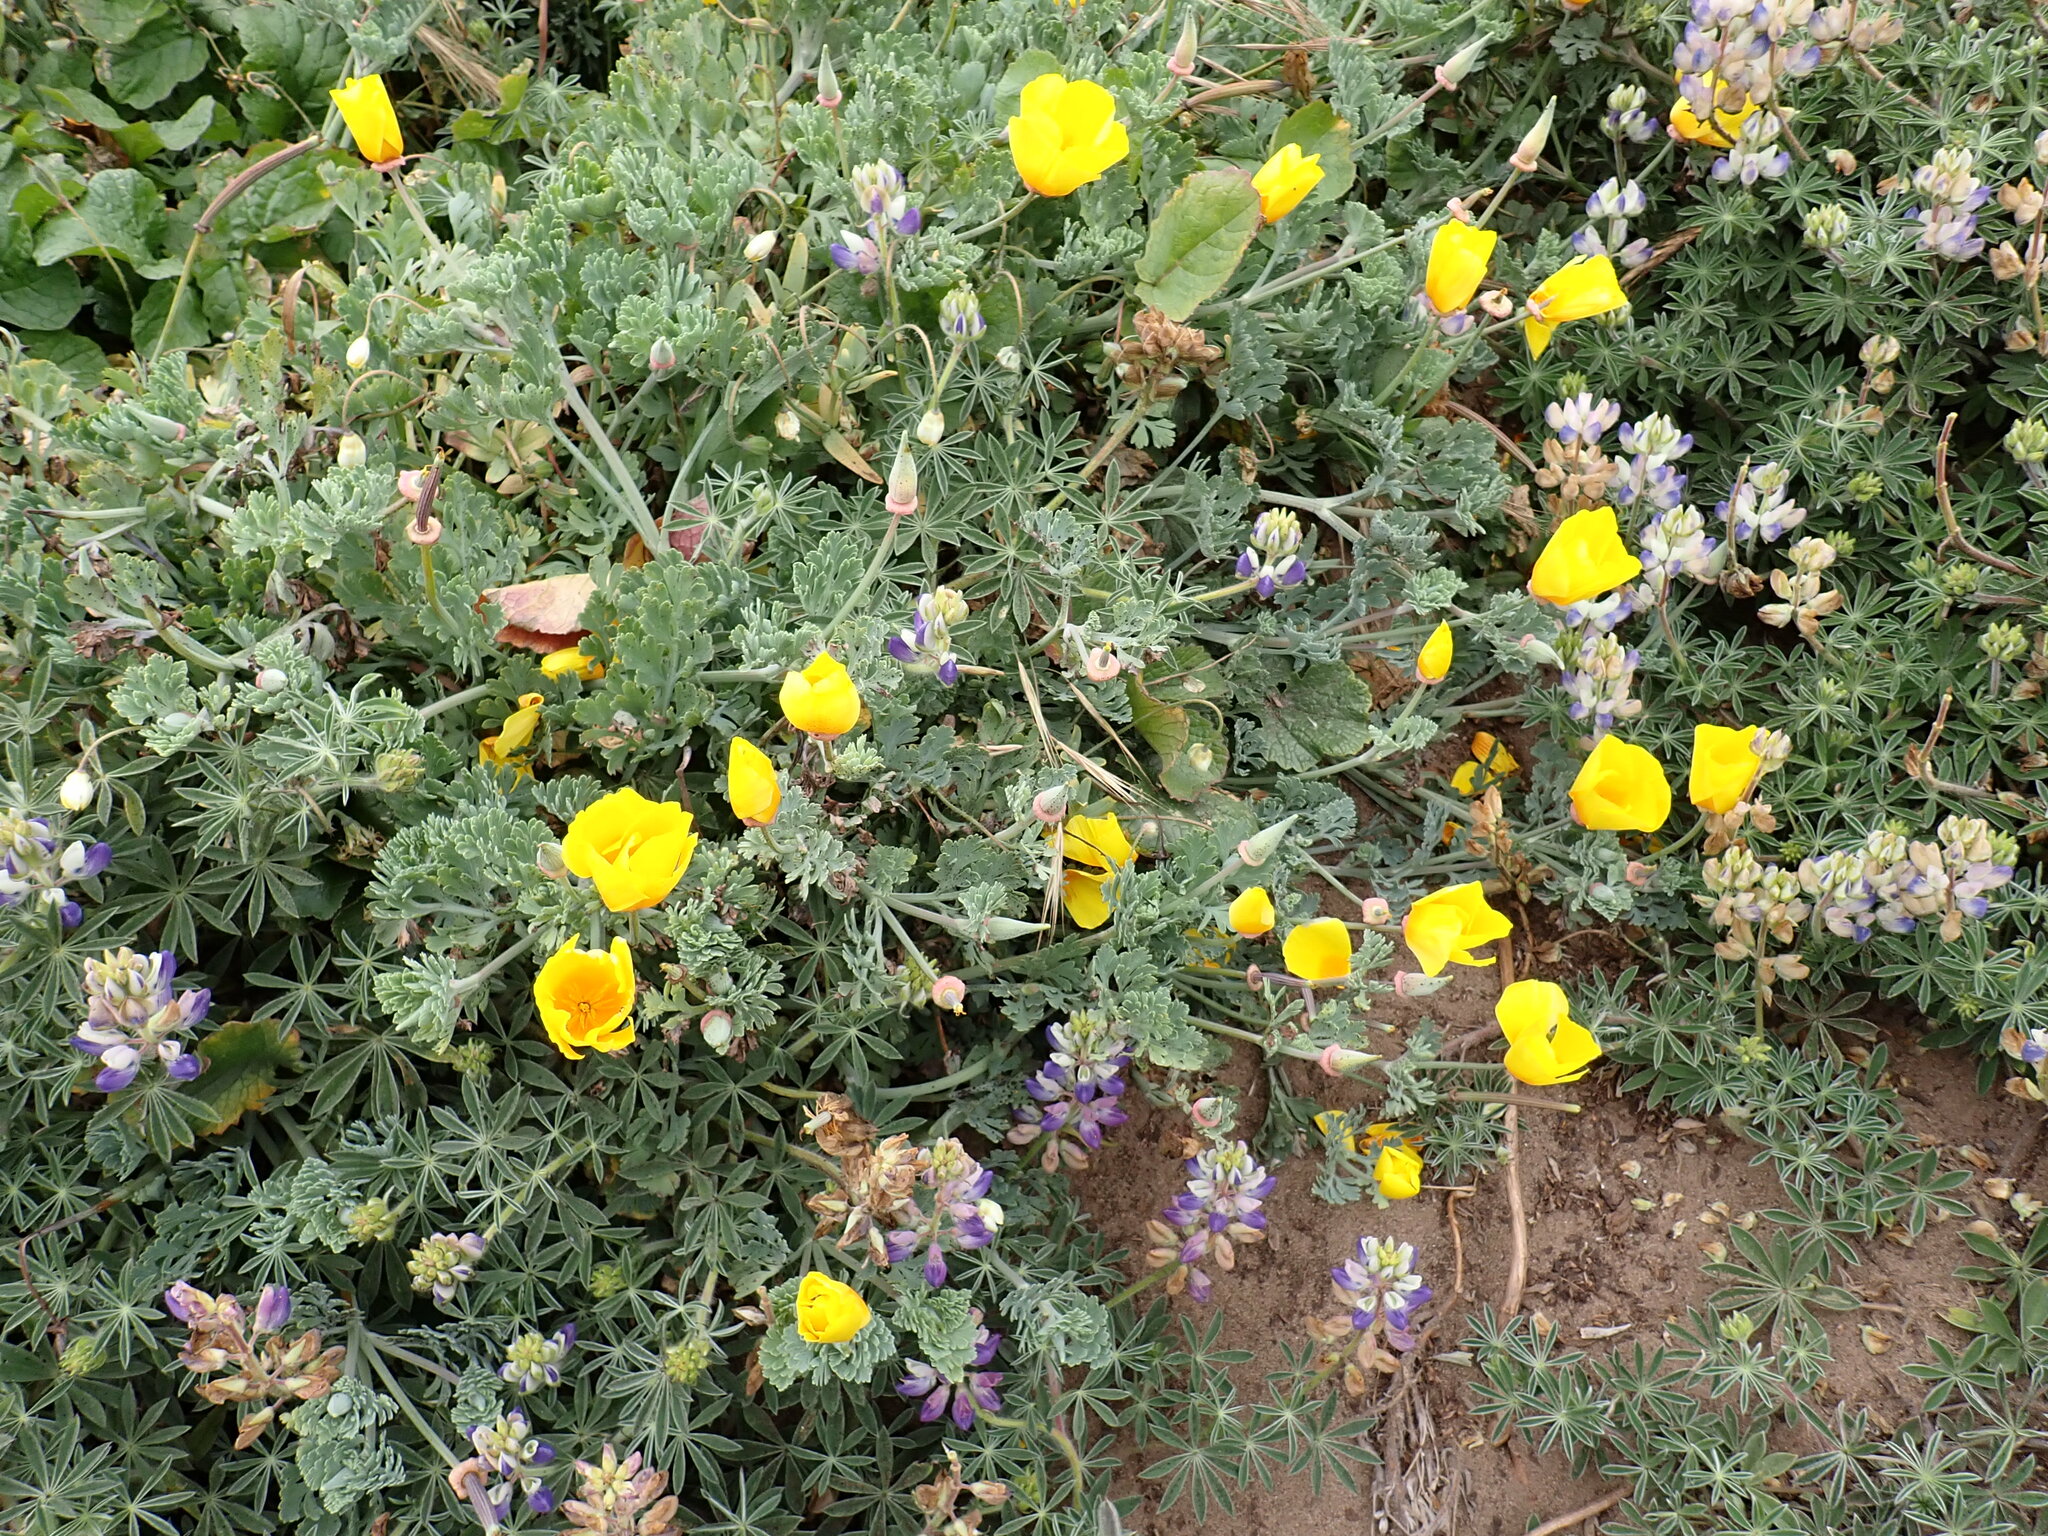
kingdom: Plantae
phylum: Tracheophyta
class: Magnoliopsida
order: Ranunculales
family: Papaveraceae
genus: Eschscholzia
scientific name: Eschscholzia californica
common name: California poppy
